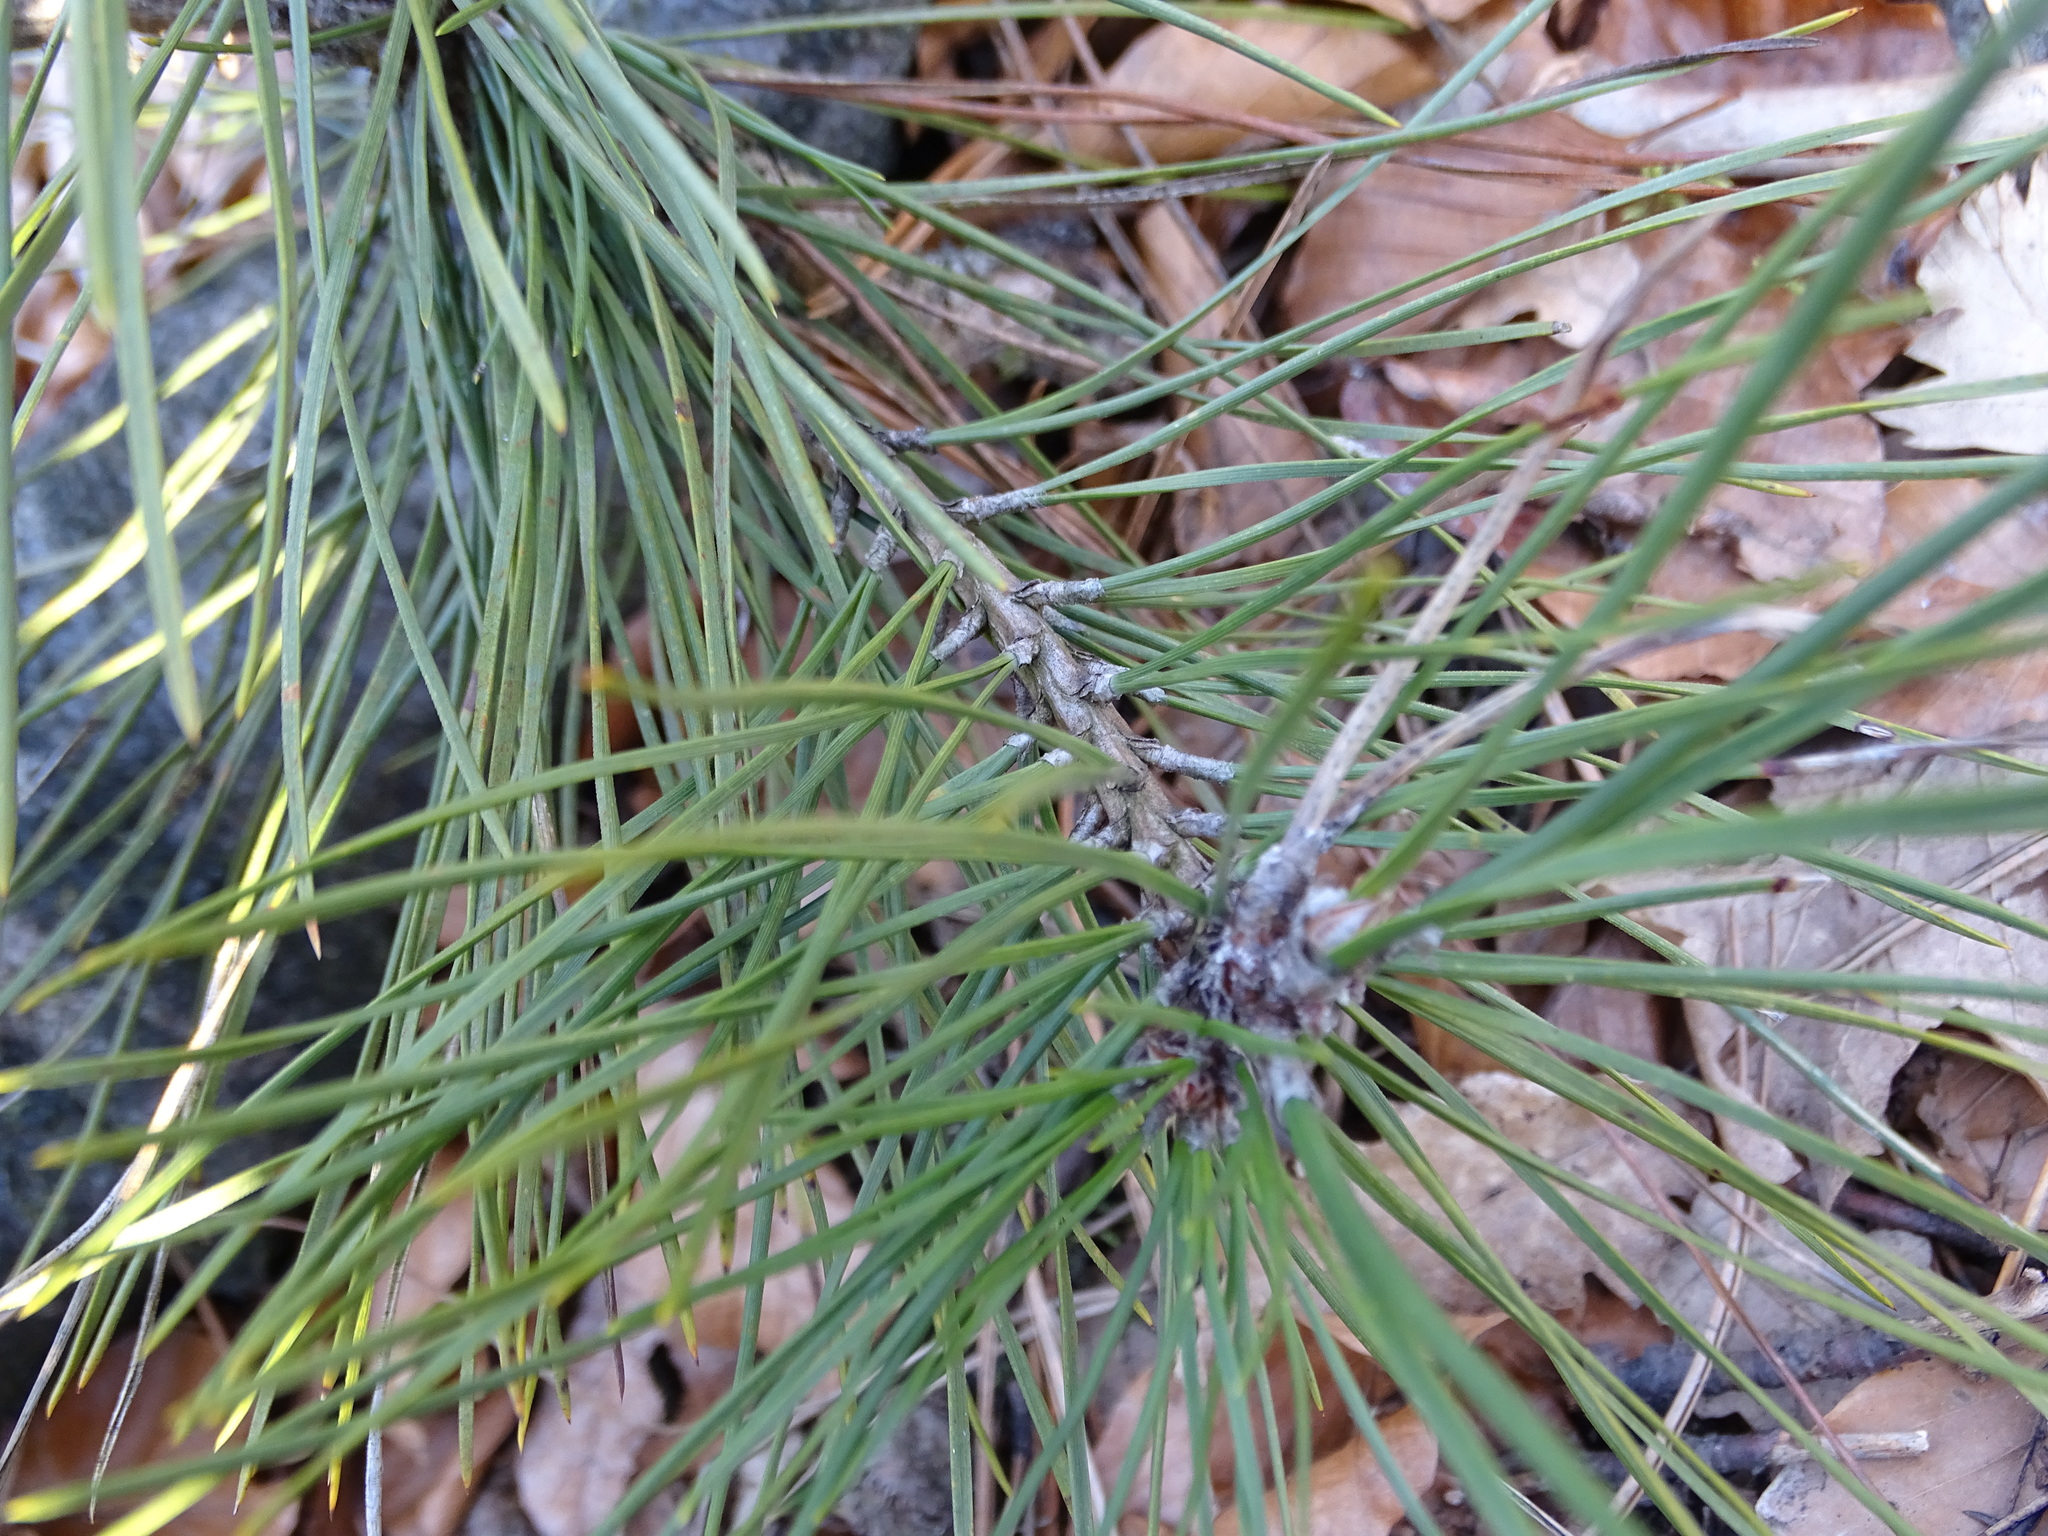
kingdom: Plantae
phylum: Tracheophyta
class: Pinopsida
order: Pinales
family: Pinaceae
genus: Pinus
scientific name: Pinus nigra
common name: Austrian pine
